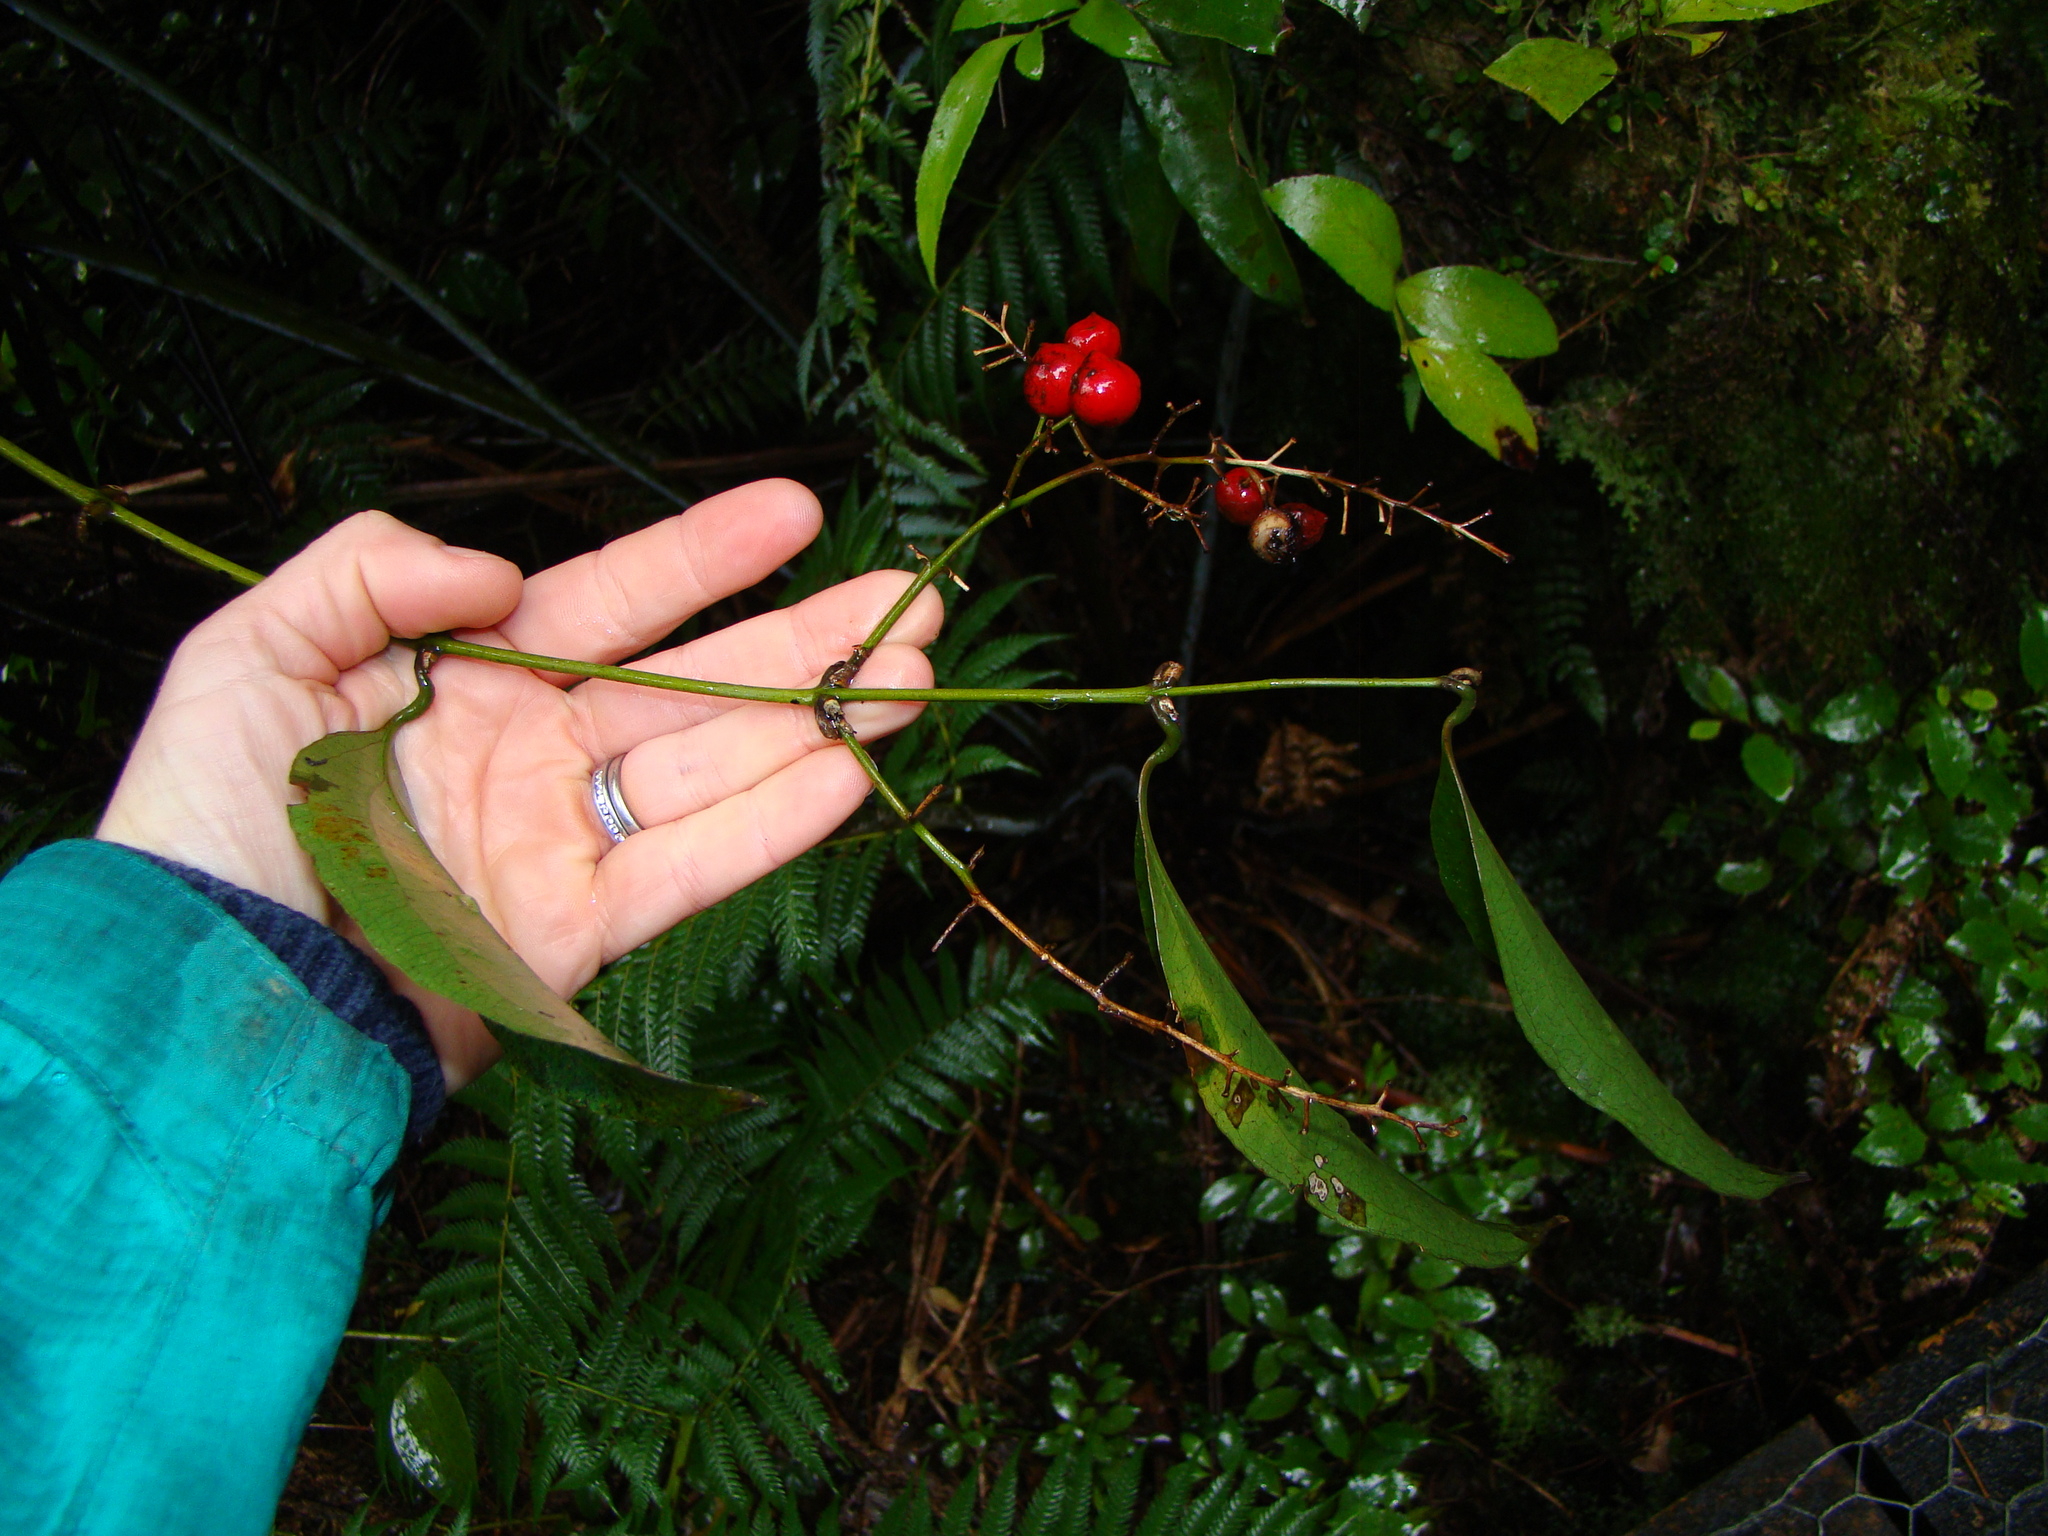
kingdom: Plantae
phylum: Tracheophyta
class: Liliopsida
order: Liliales
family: Ripogonaceae
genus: Ripogonum
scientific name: Ripogonum scandens
